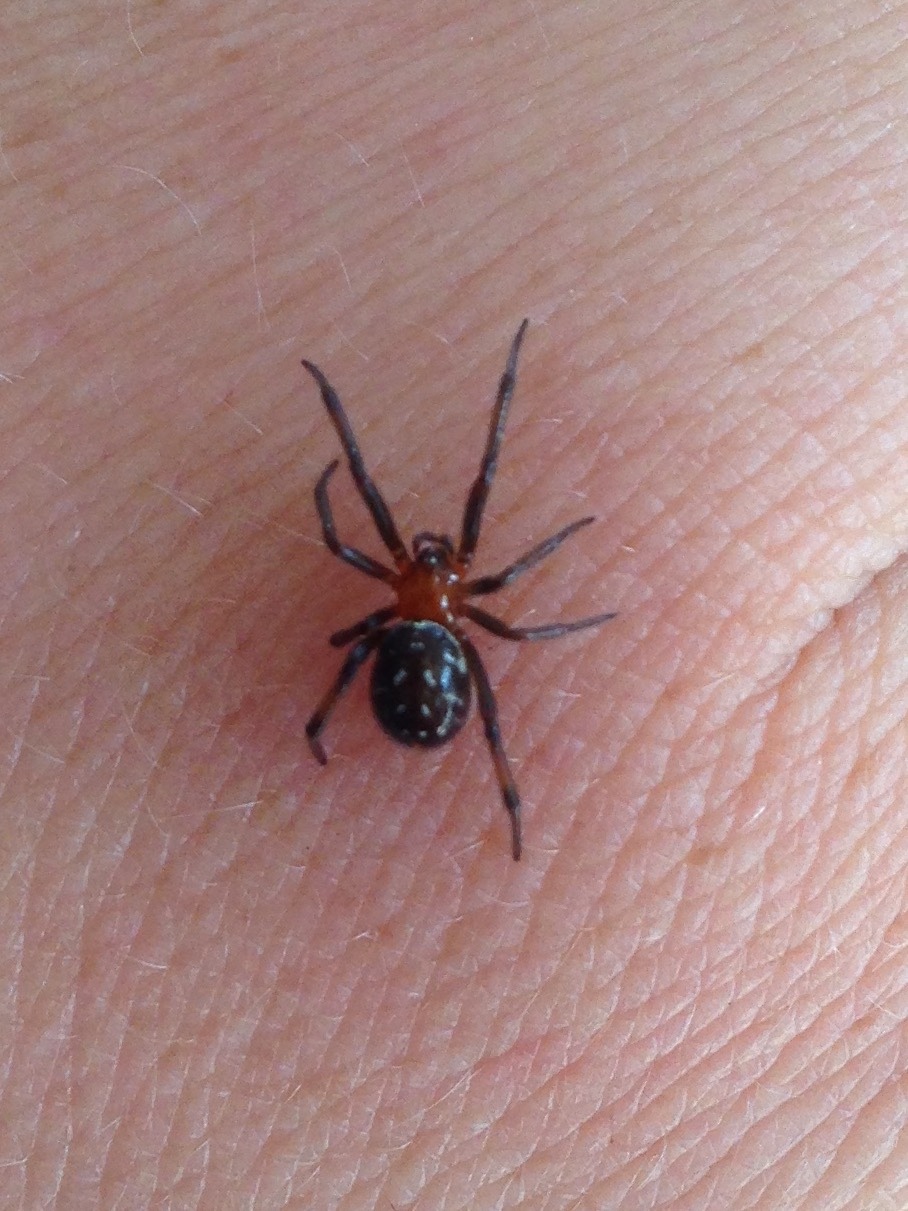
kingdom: Animalia
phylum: Arthropoda
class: Arachnida
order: Araneae
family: Theridiidae
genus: Steatoda
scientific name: Steatoda capensis
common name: Cobweb weaver
